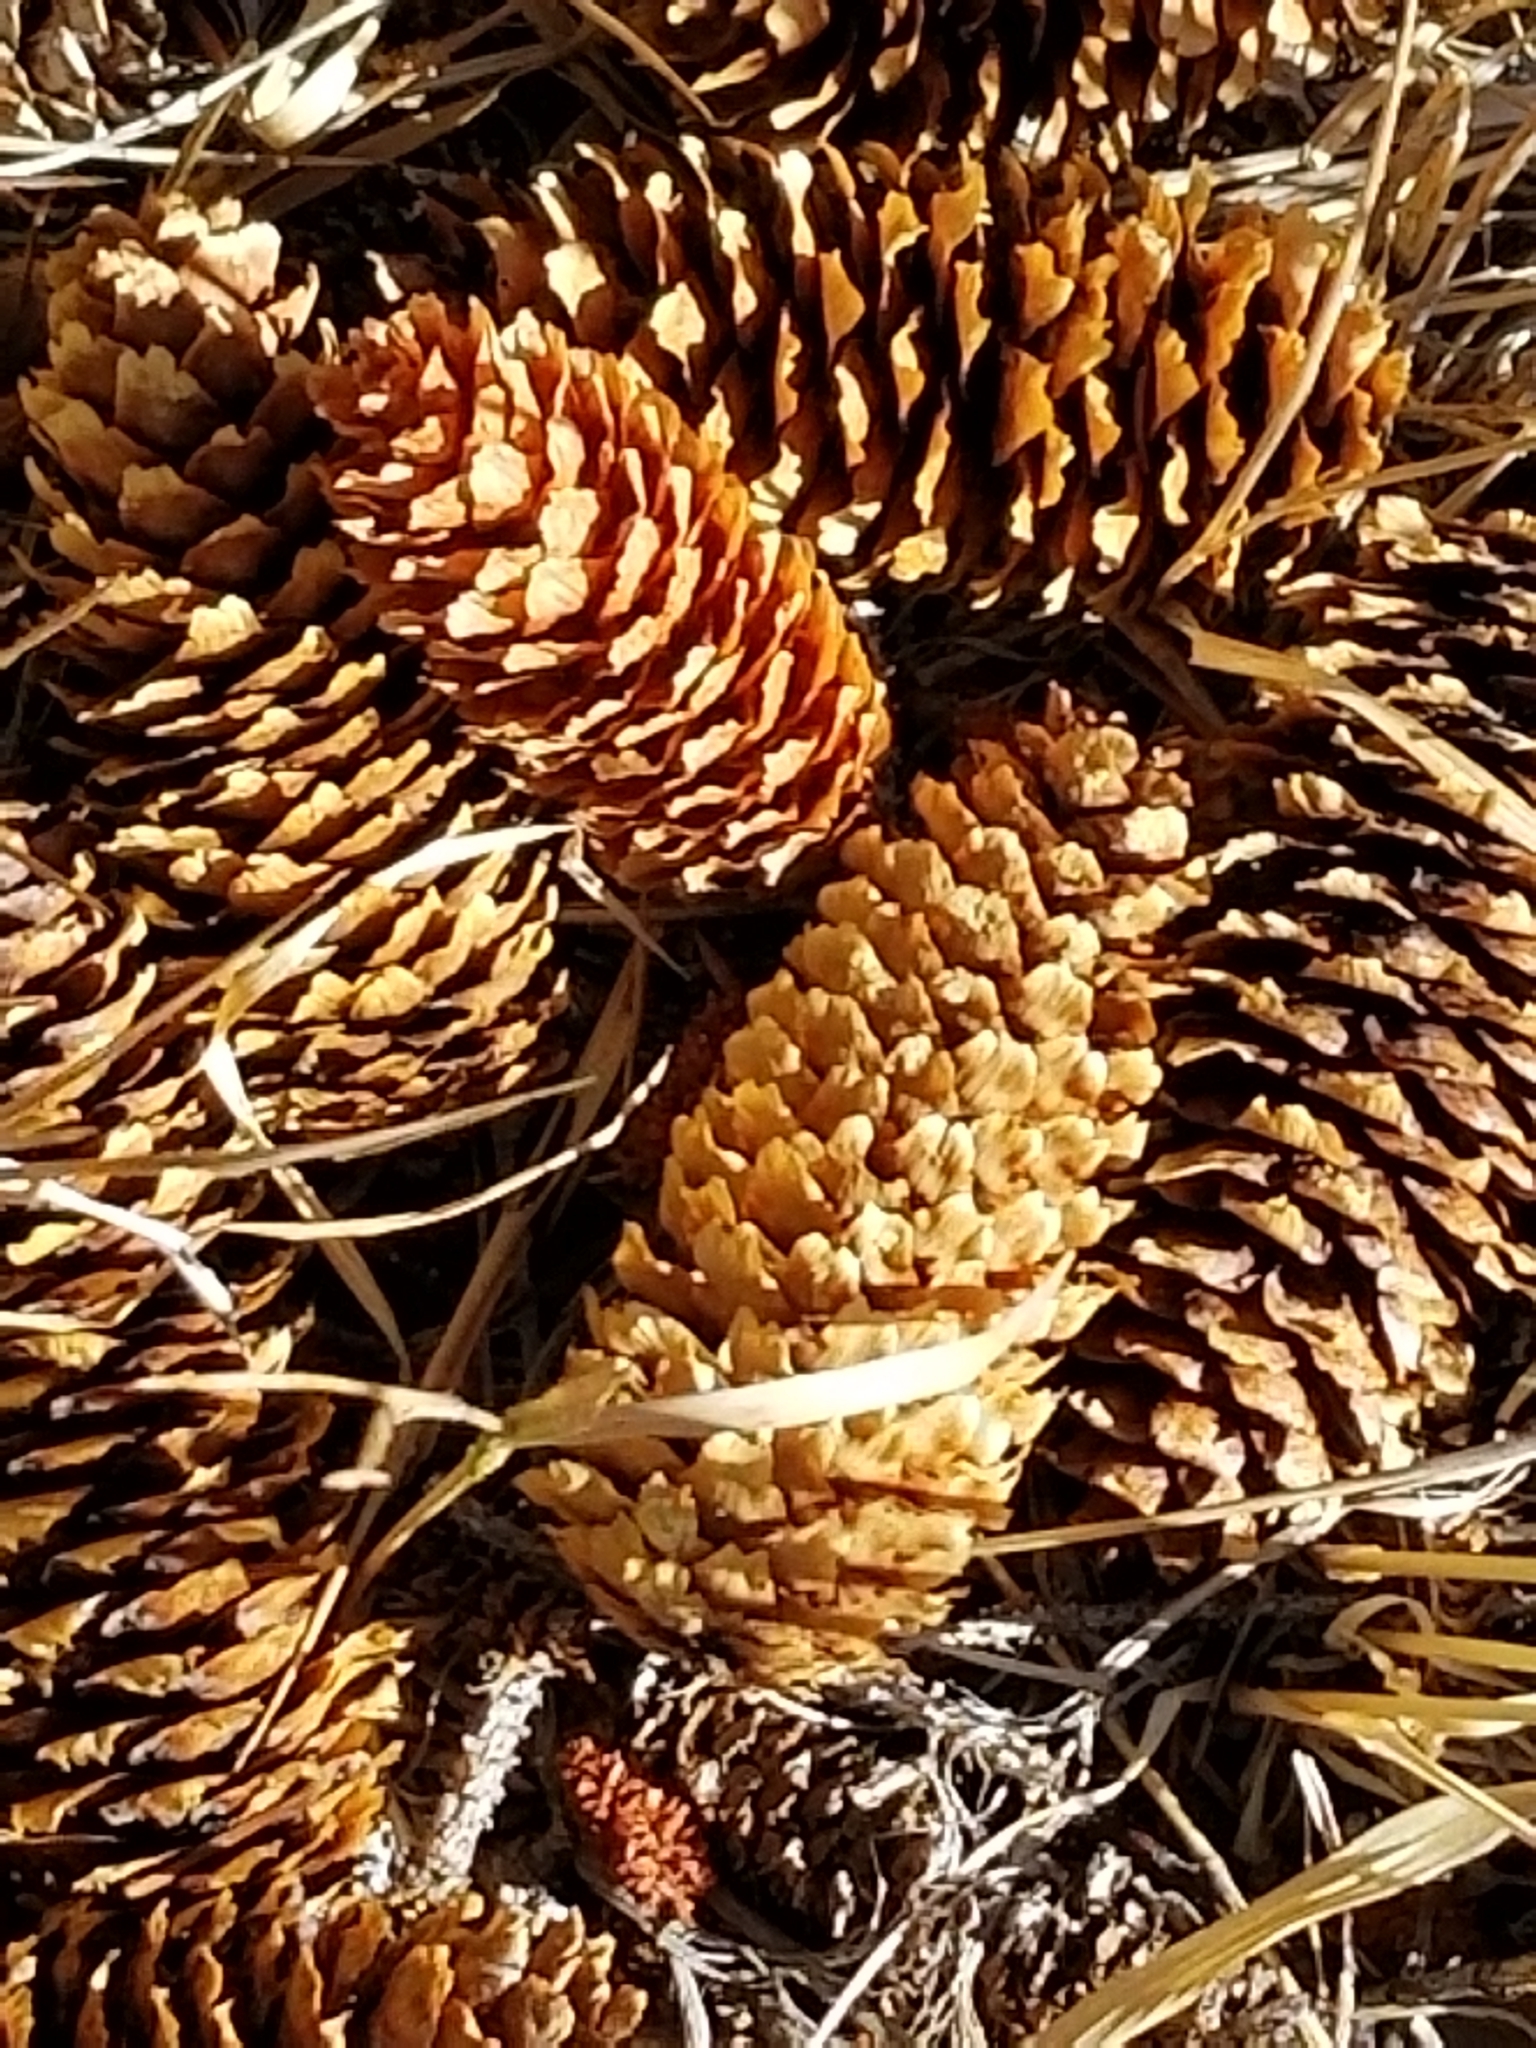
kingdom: Plantae
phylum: Tracheophyta
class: Pinopsida
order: Pinales
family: Pinaceae
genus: Picea
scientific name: Picea pungens
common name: Colorado spruce
